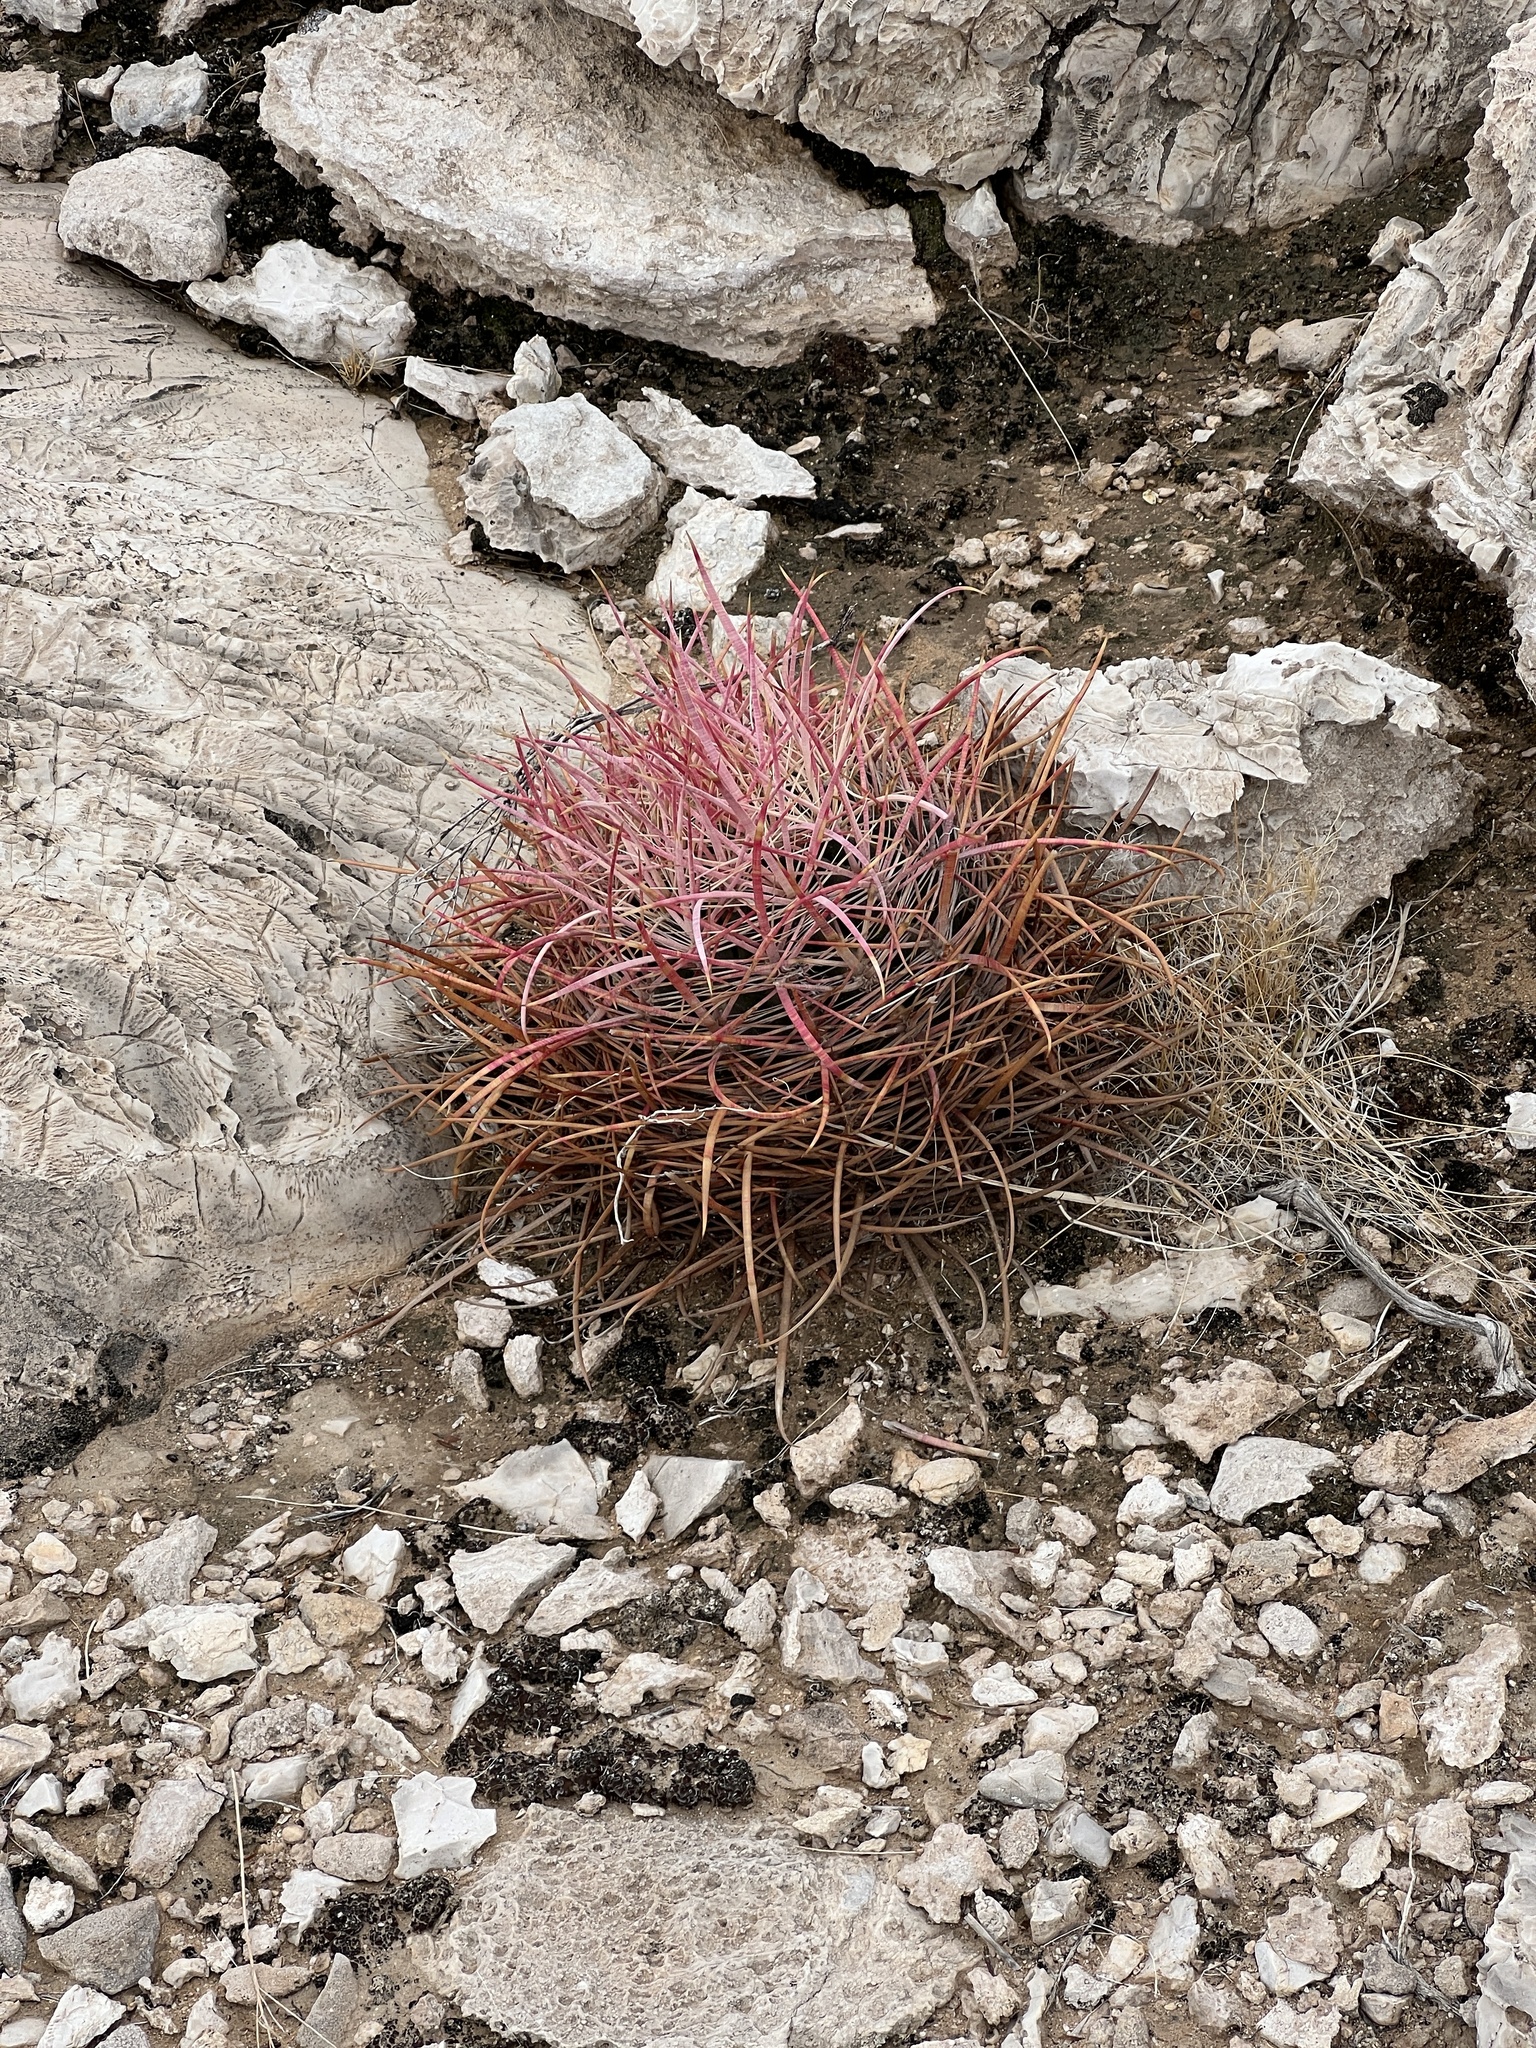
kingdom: Plantae
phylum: Tracheophyta
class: Magnoliopsida
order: Caryophyllales
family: Cactaceae
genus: Ferocactus
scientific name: Ferocactus cylindraceus
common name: California barrel cactus
